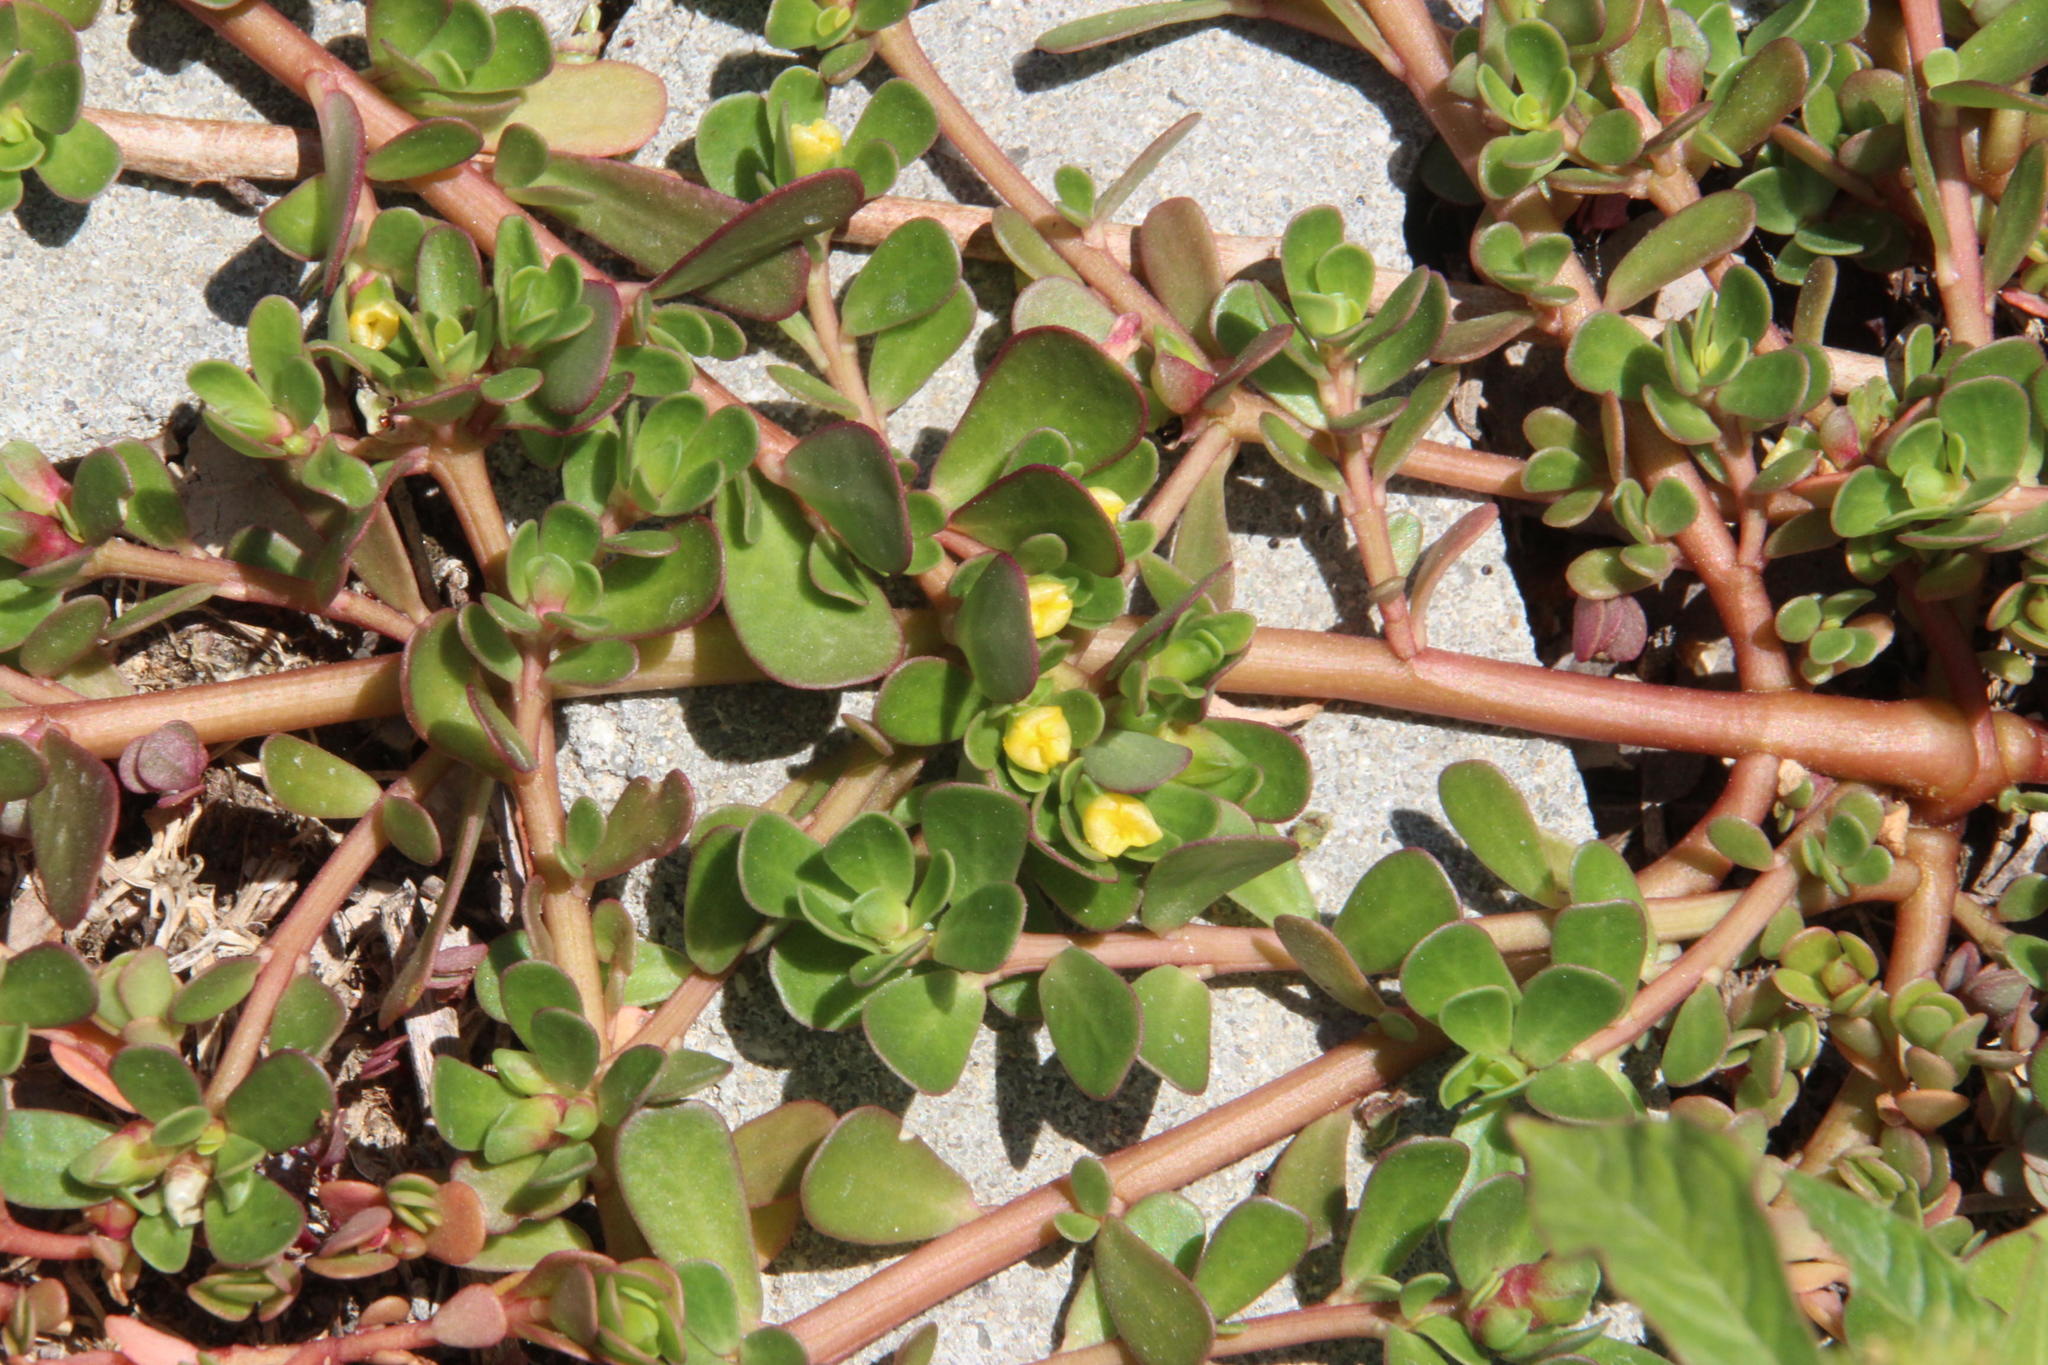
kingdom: Plantae
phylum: Tracheophyta
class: Magnoliopsida
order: Caryophyllales
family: Portulacaceae
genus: Portulaca
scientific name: Portulaca oleracea
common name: Common purslane
